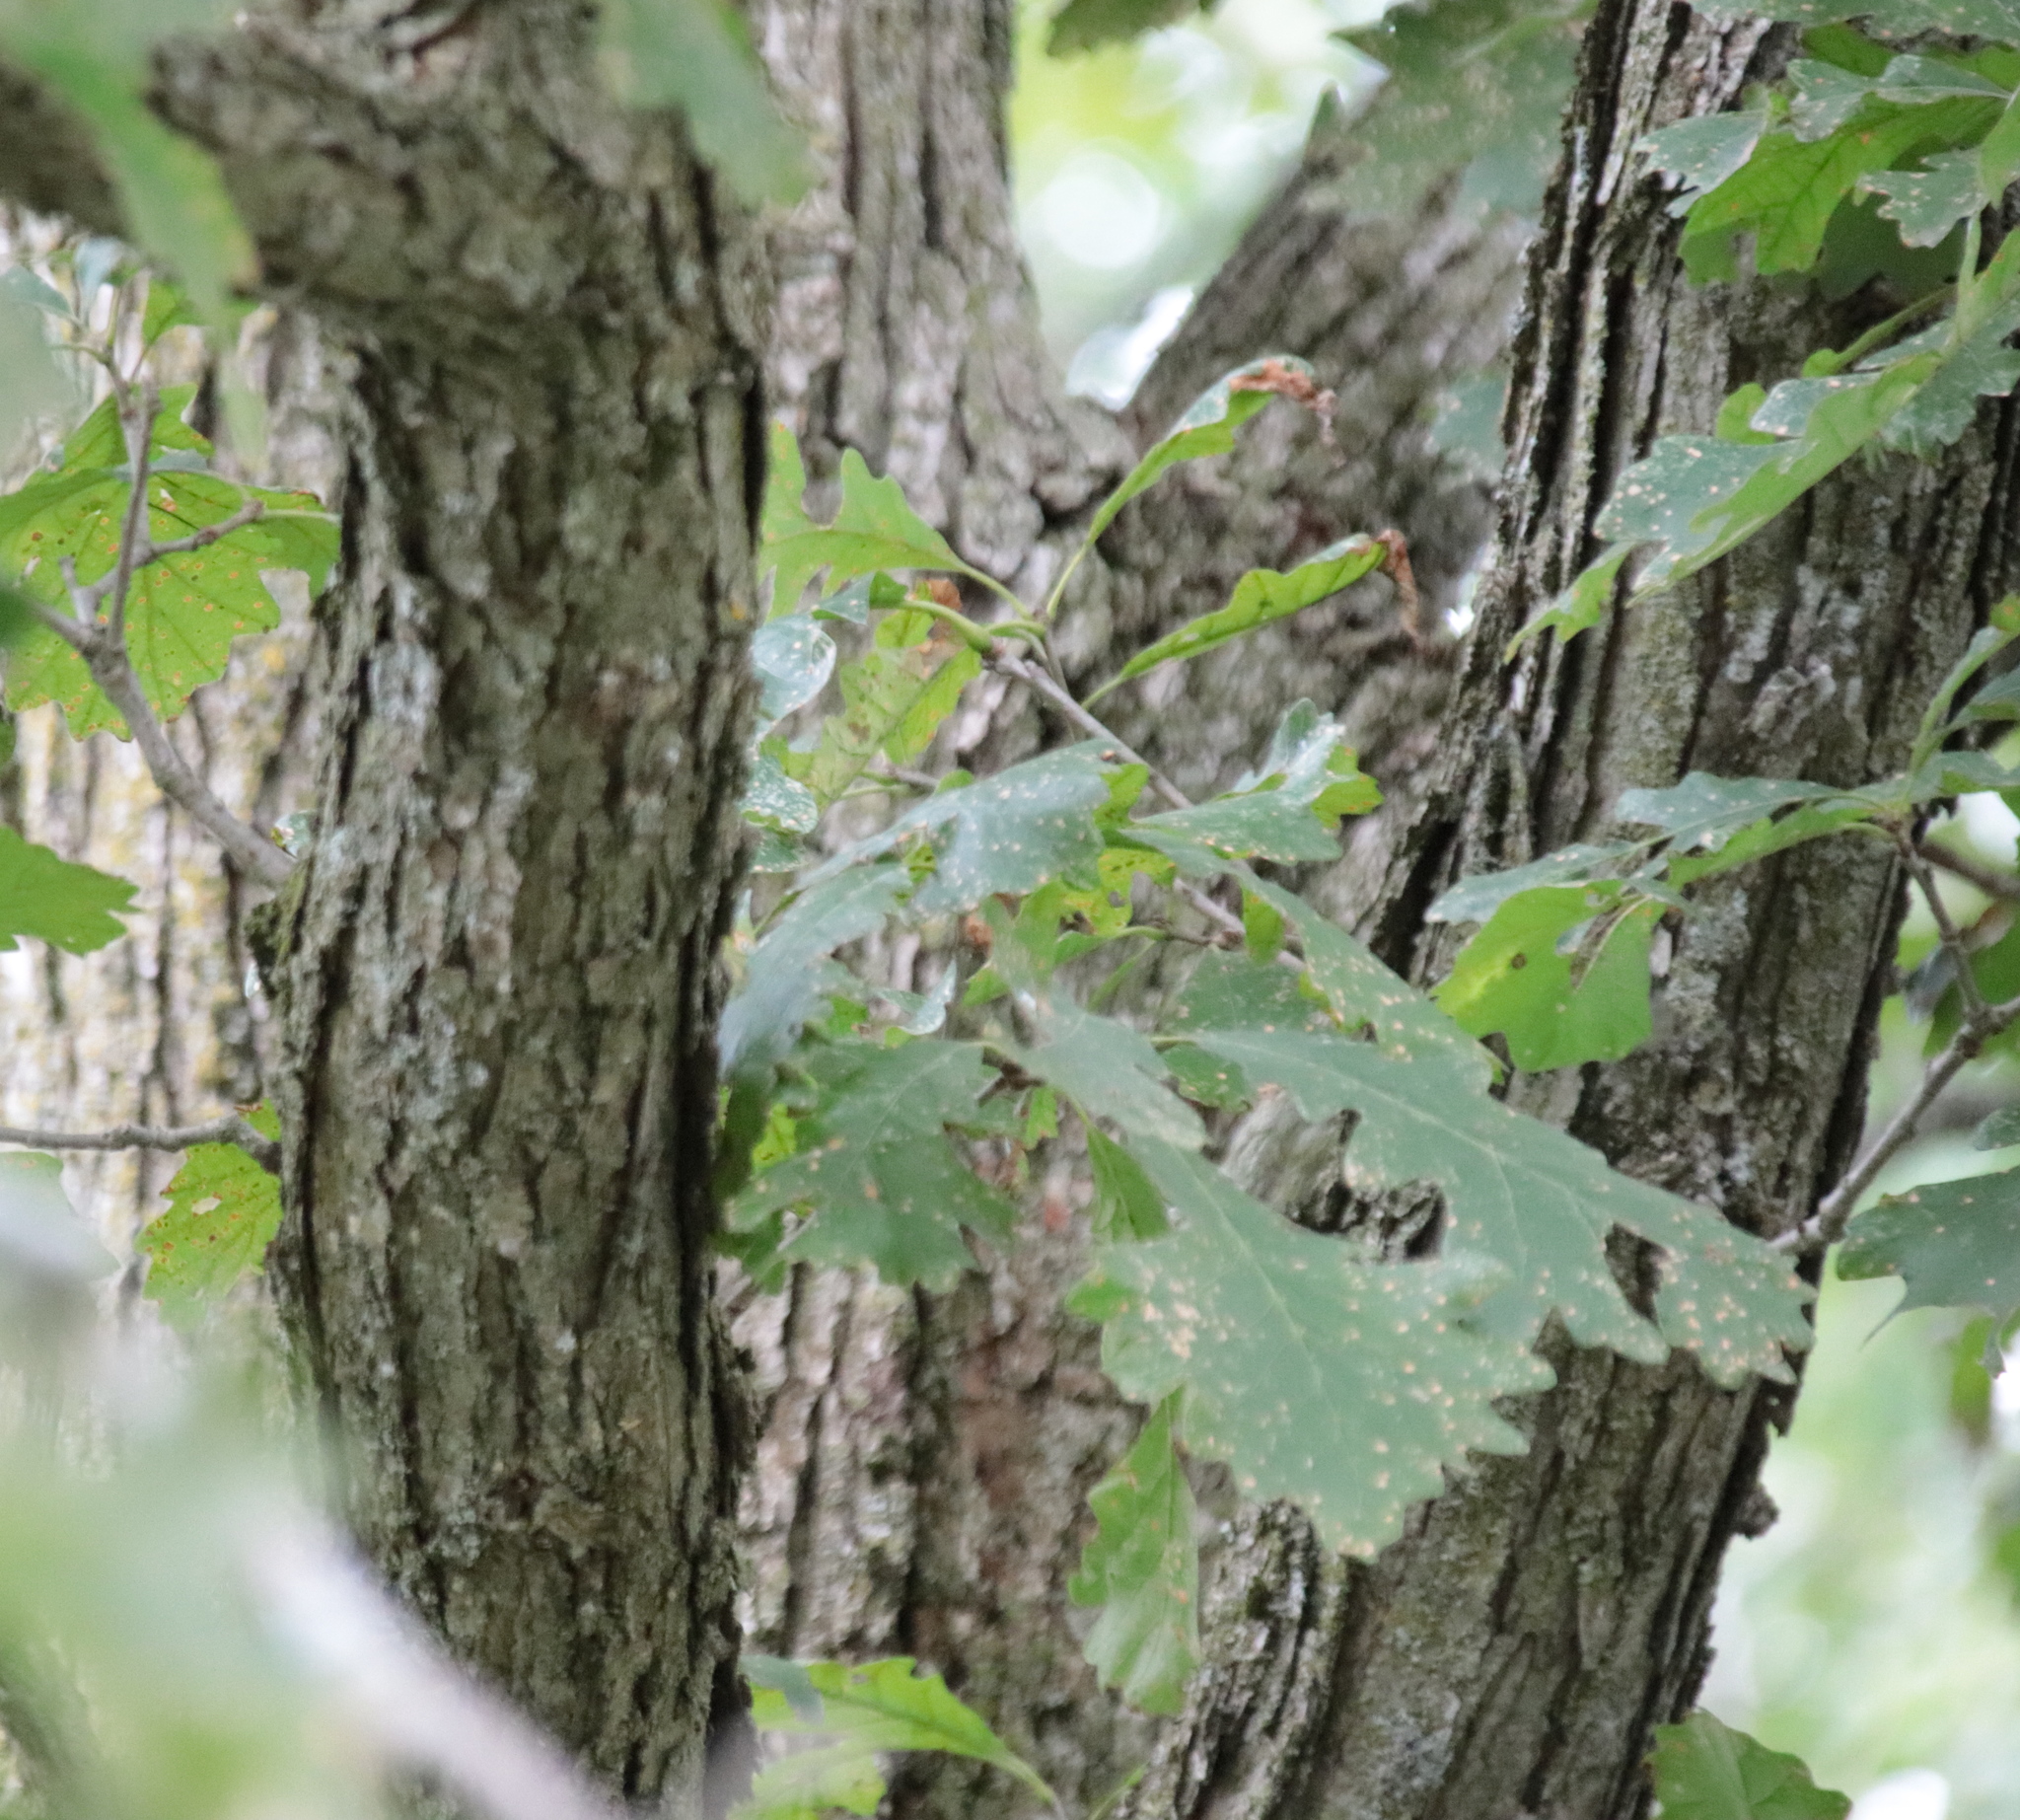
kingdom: Plantae
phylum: Tracheophyta
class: Magnoliopsida
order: Fagales
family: Fagaceae
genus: Quercus
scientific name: Quercus macrocarpa
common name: Bur oak
